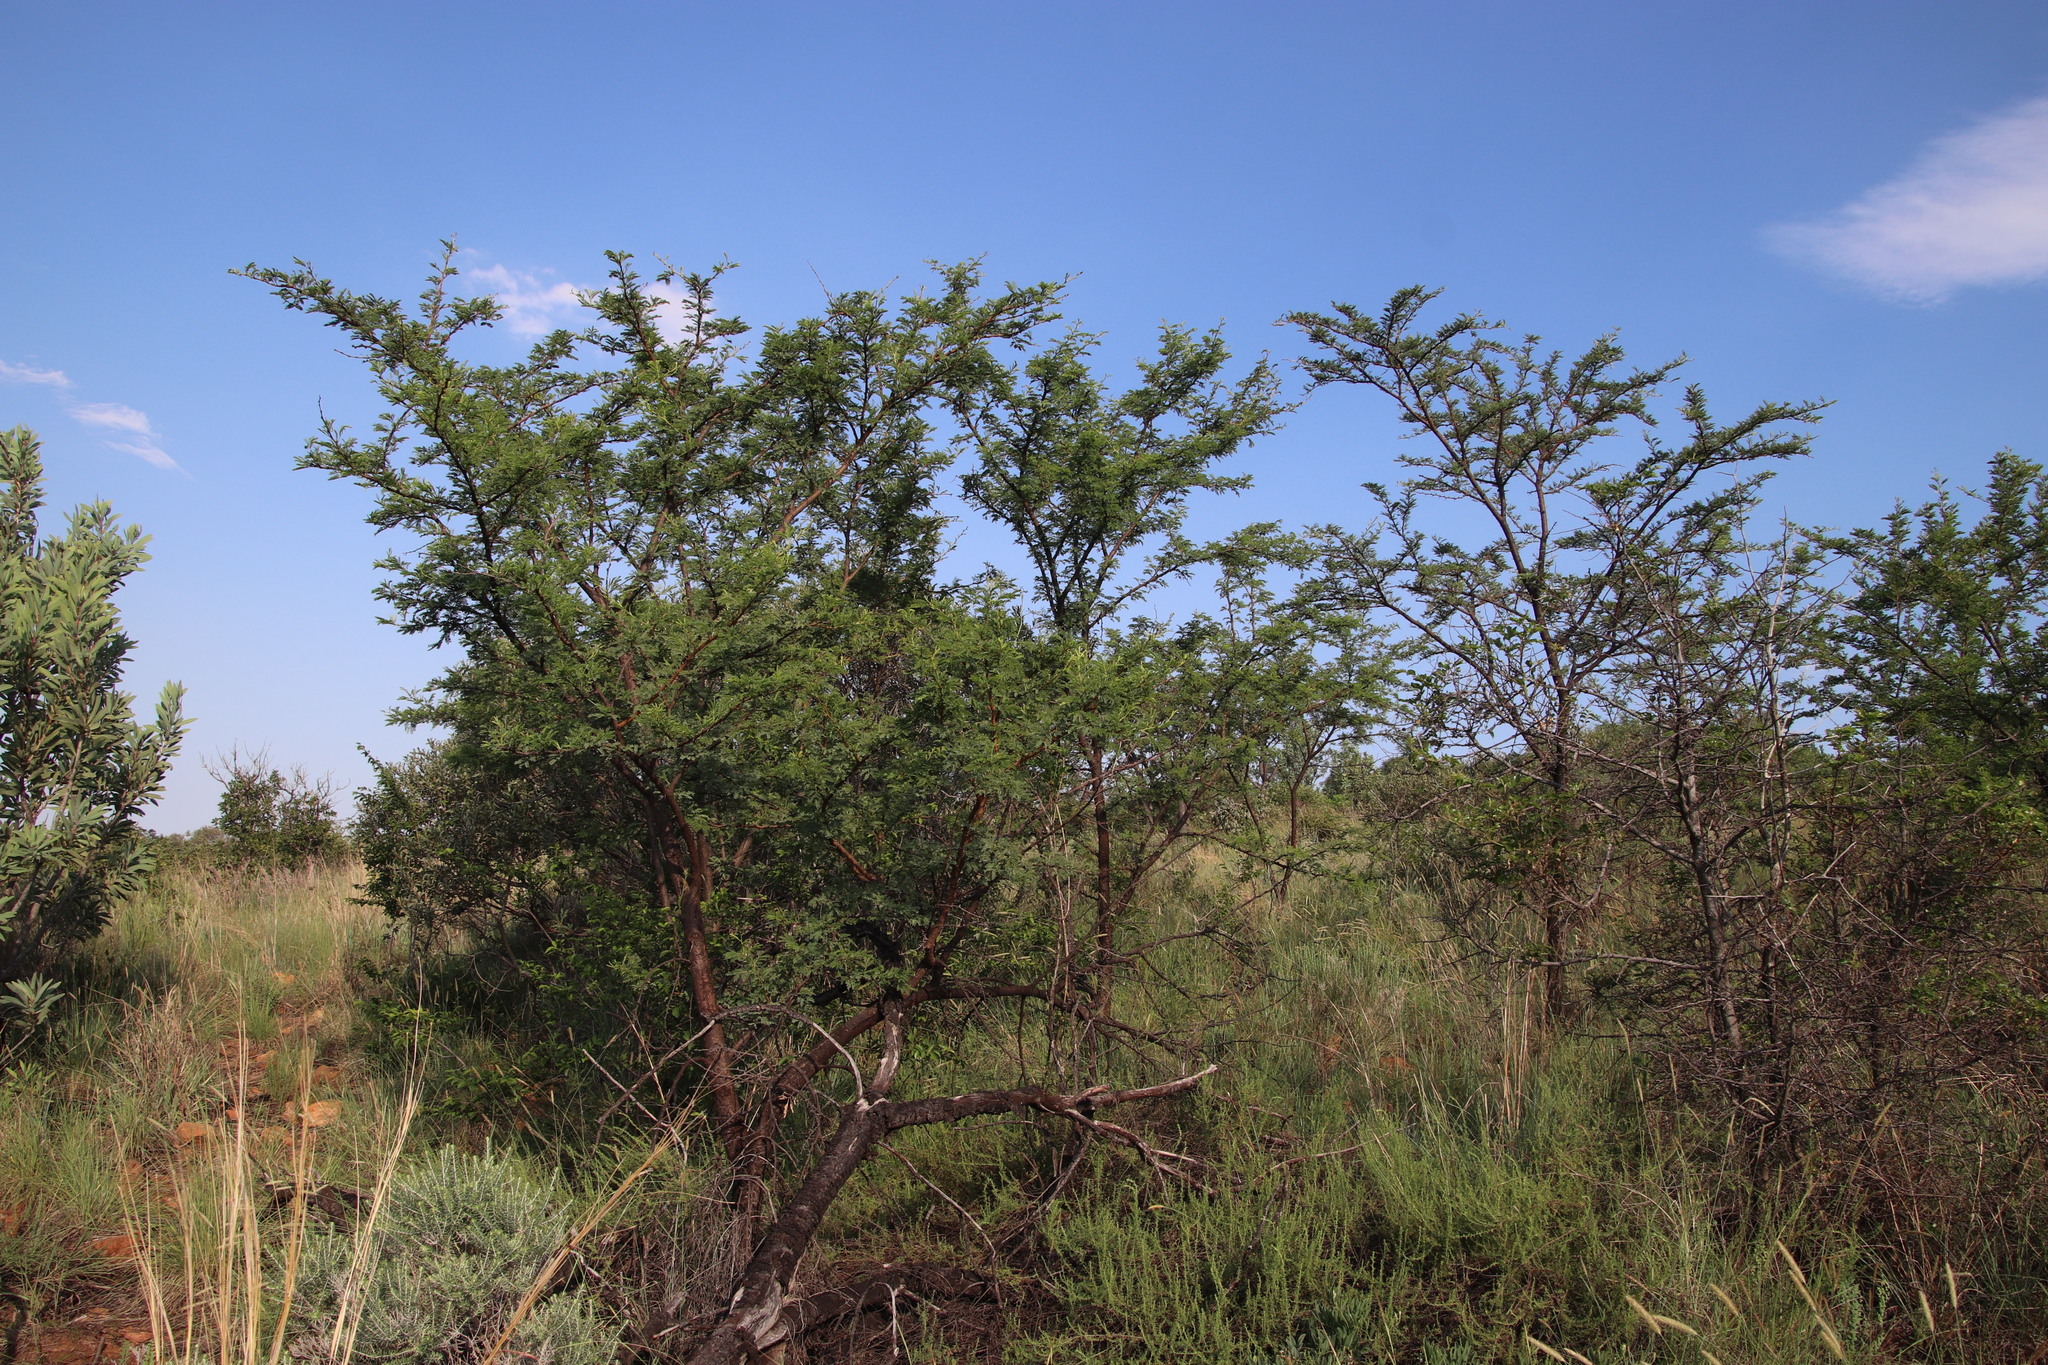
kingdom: Plantae
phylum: Tracheophyta
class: Magnoliopsida
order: Fabales
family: Fabaceae
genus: Vachellia
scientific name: Vachellia karroo
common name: Sweet thorn
